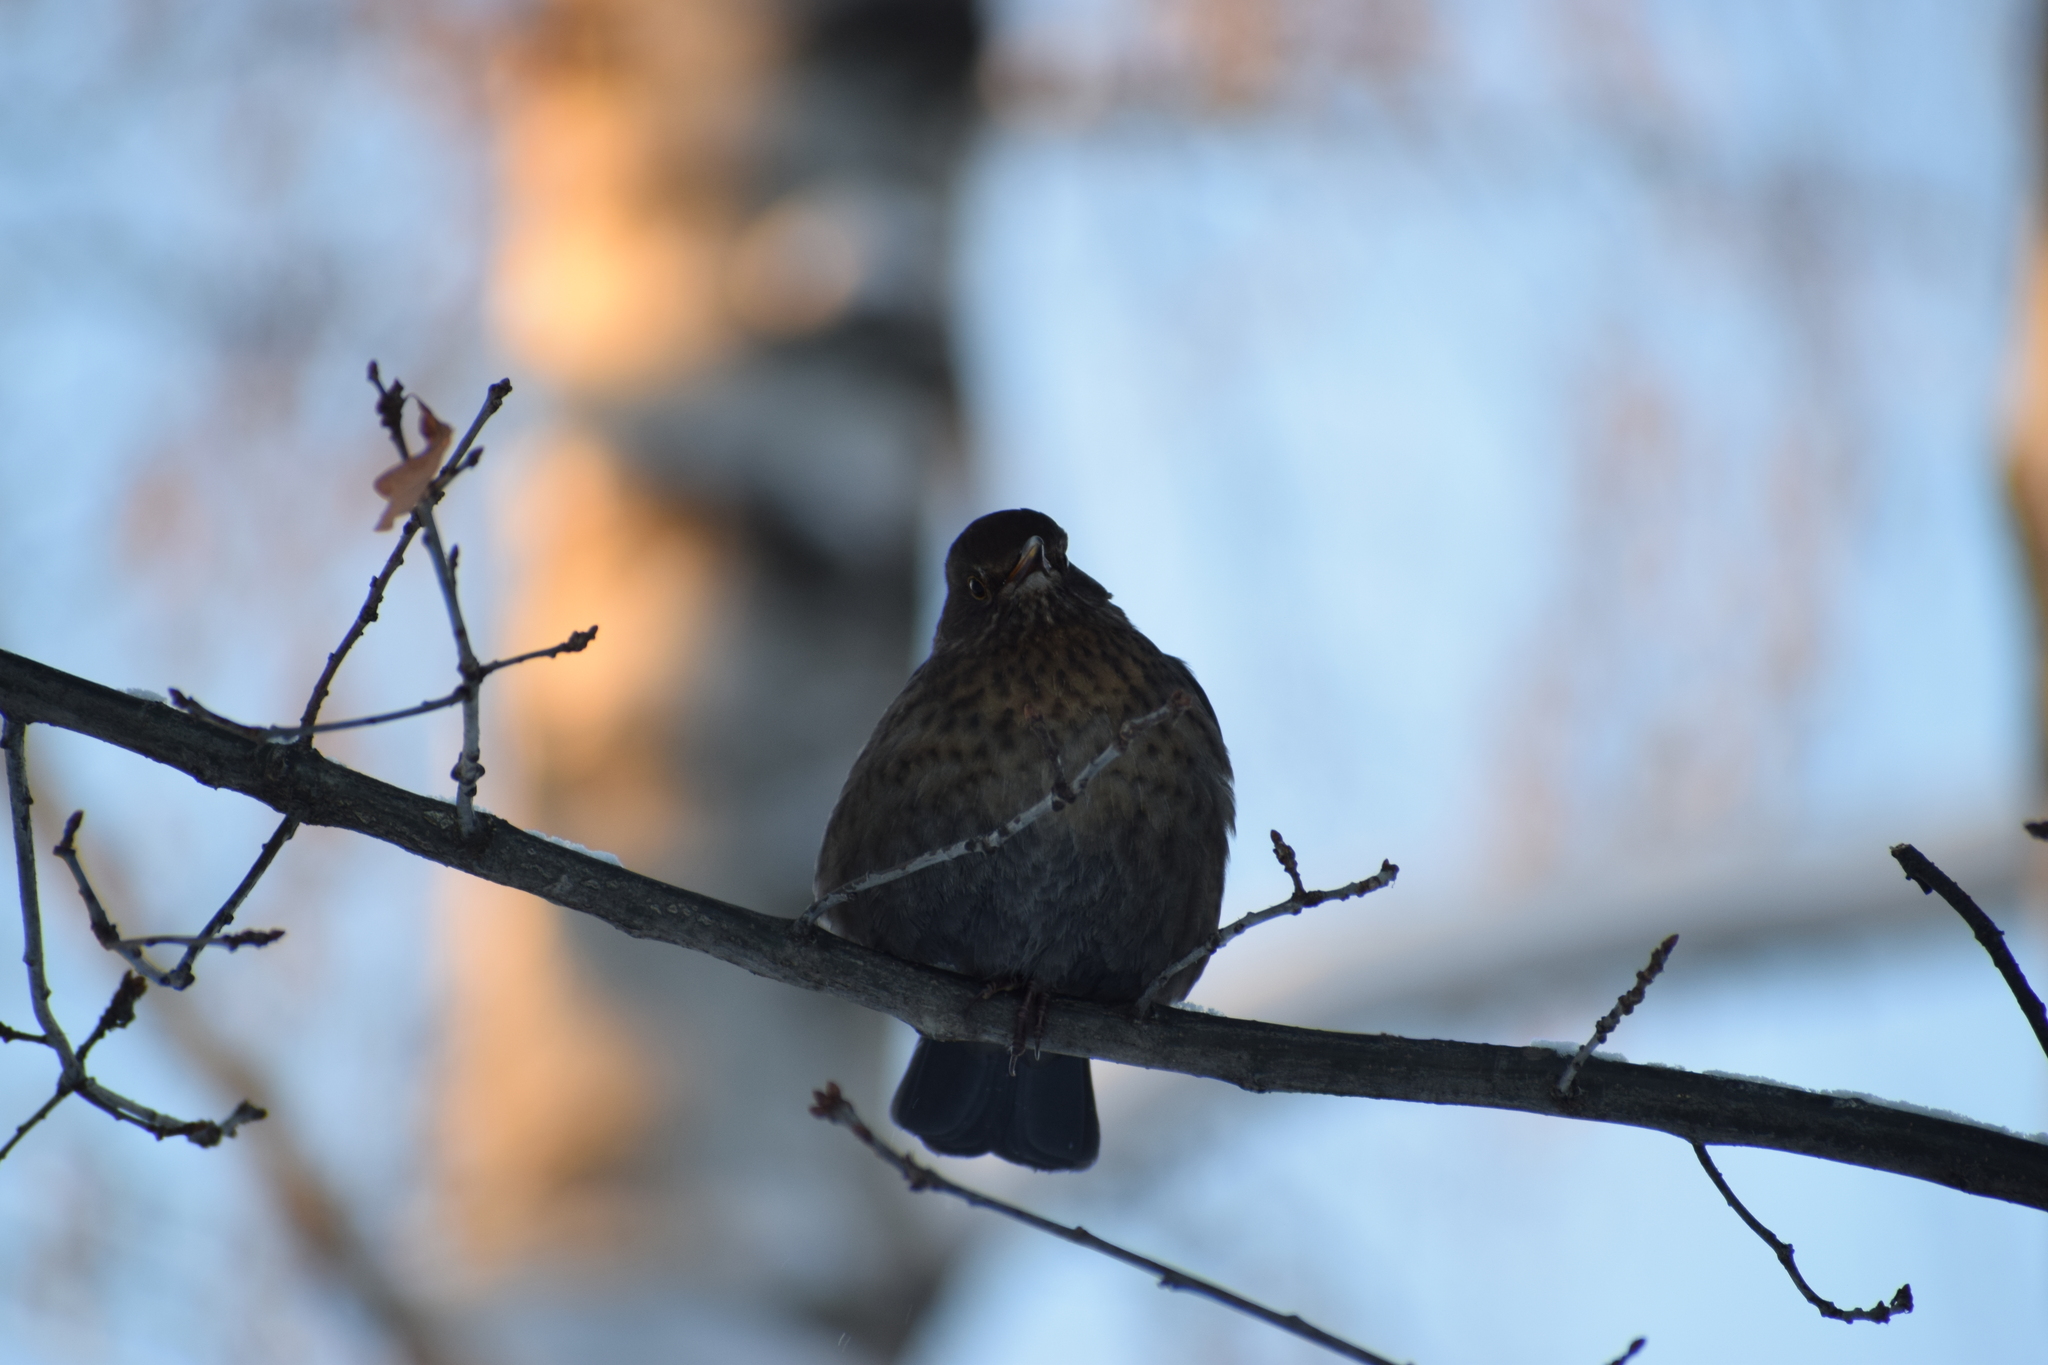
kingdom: Animalia
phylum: Chordata
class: Aves
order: Passeriformes
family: Turdidae
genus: Turdus
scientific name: Turdus merula
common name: Common blackbird
